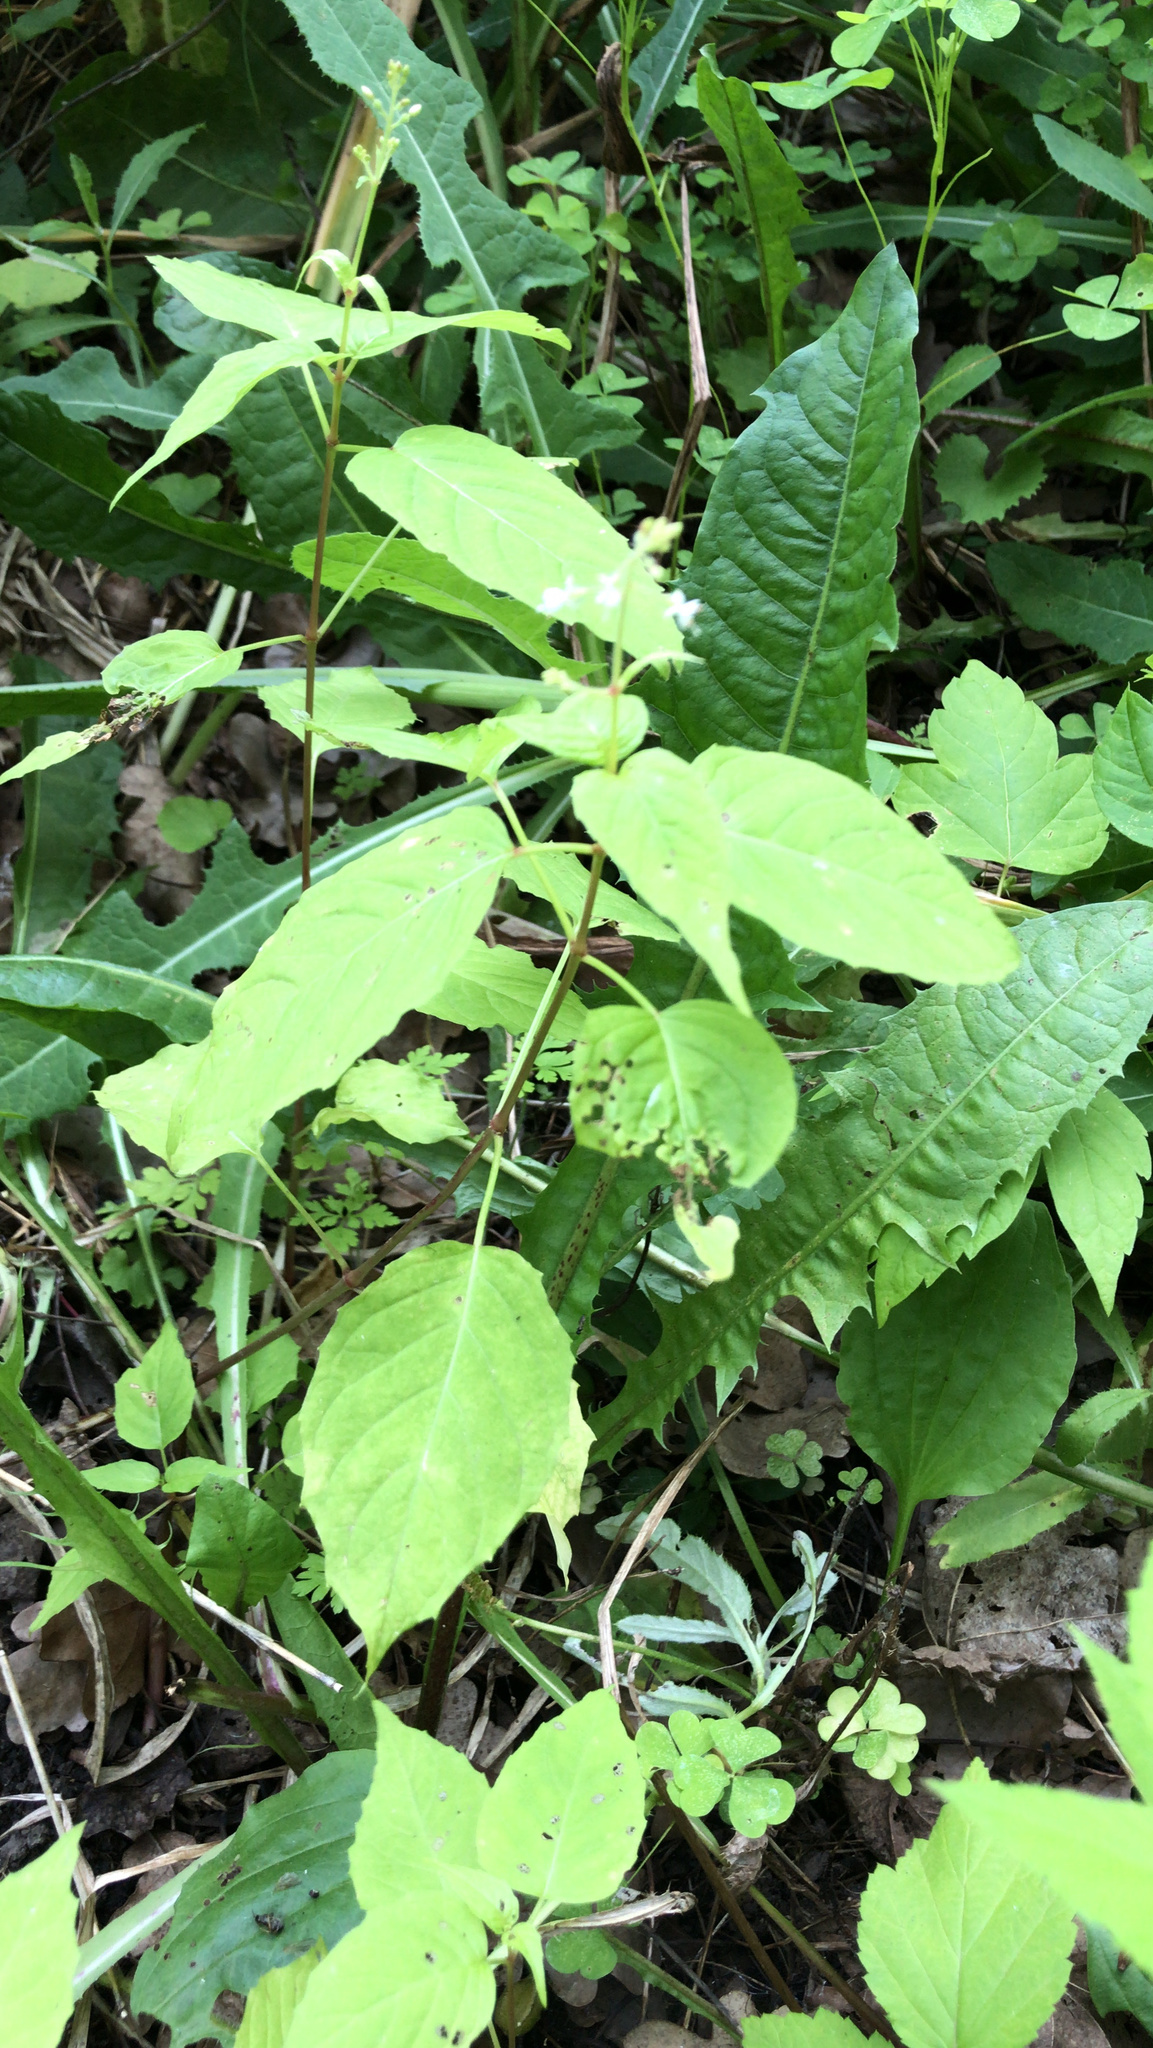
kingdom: Plantae
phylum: Tracheophyta
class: Magnoliopsida
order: Myrtales
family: Onagraceae
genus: Circaea
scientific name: Circaea canadensis
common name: Broad-leaved enchanter's nightshade
